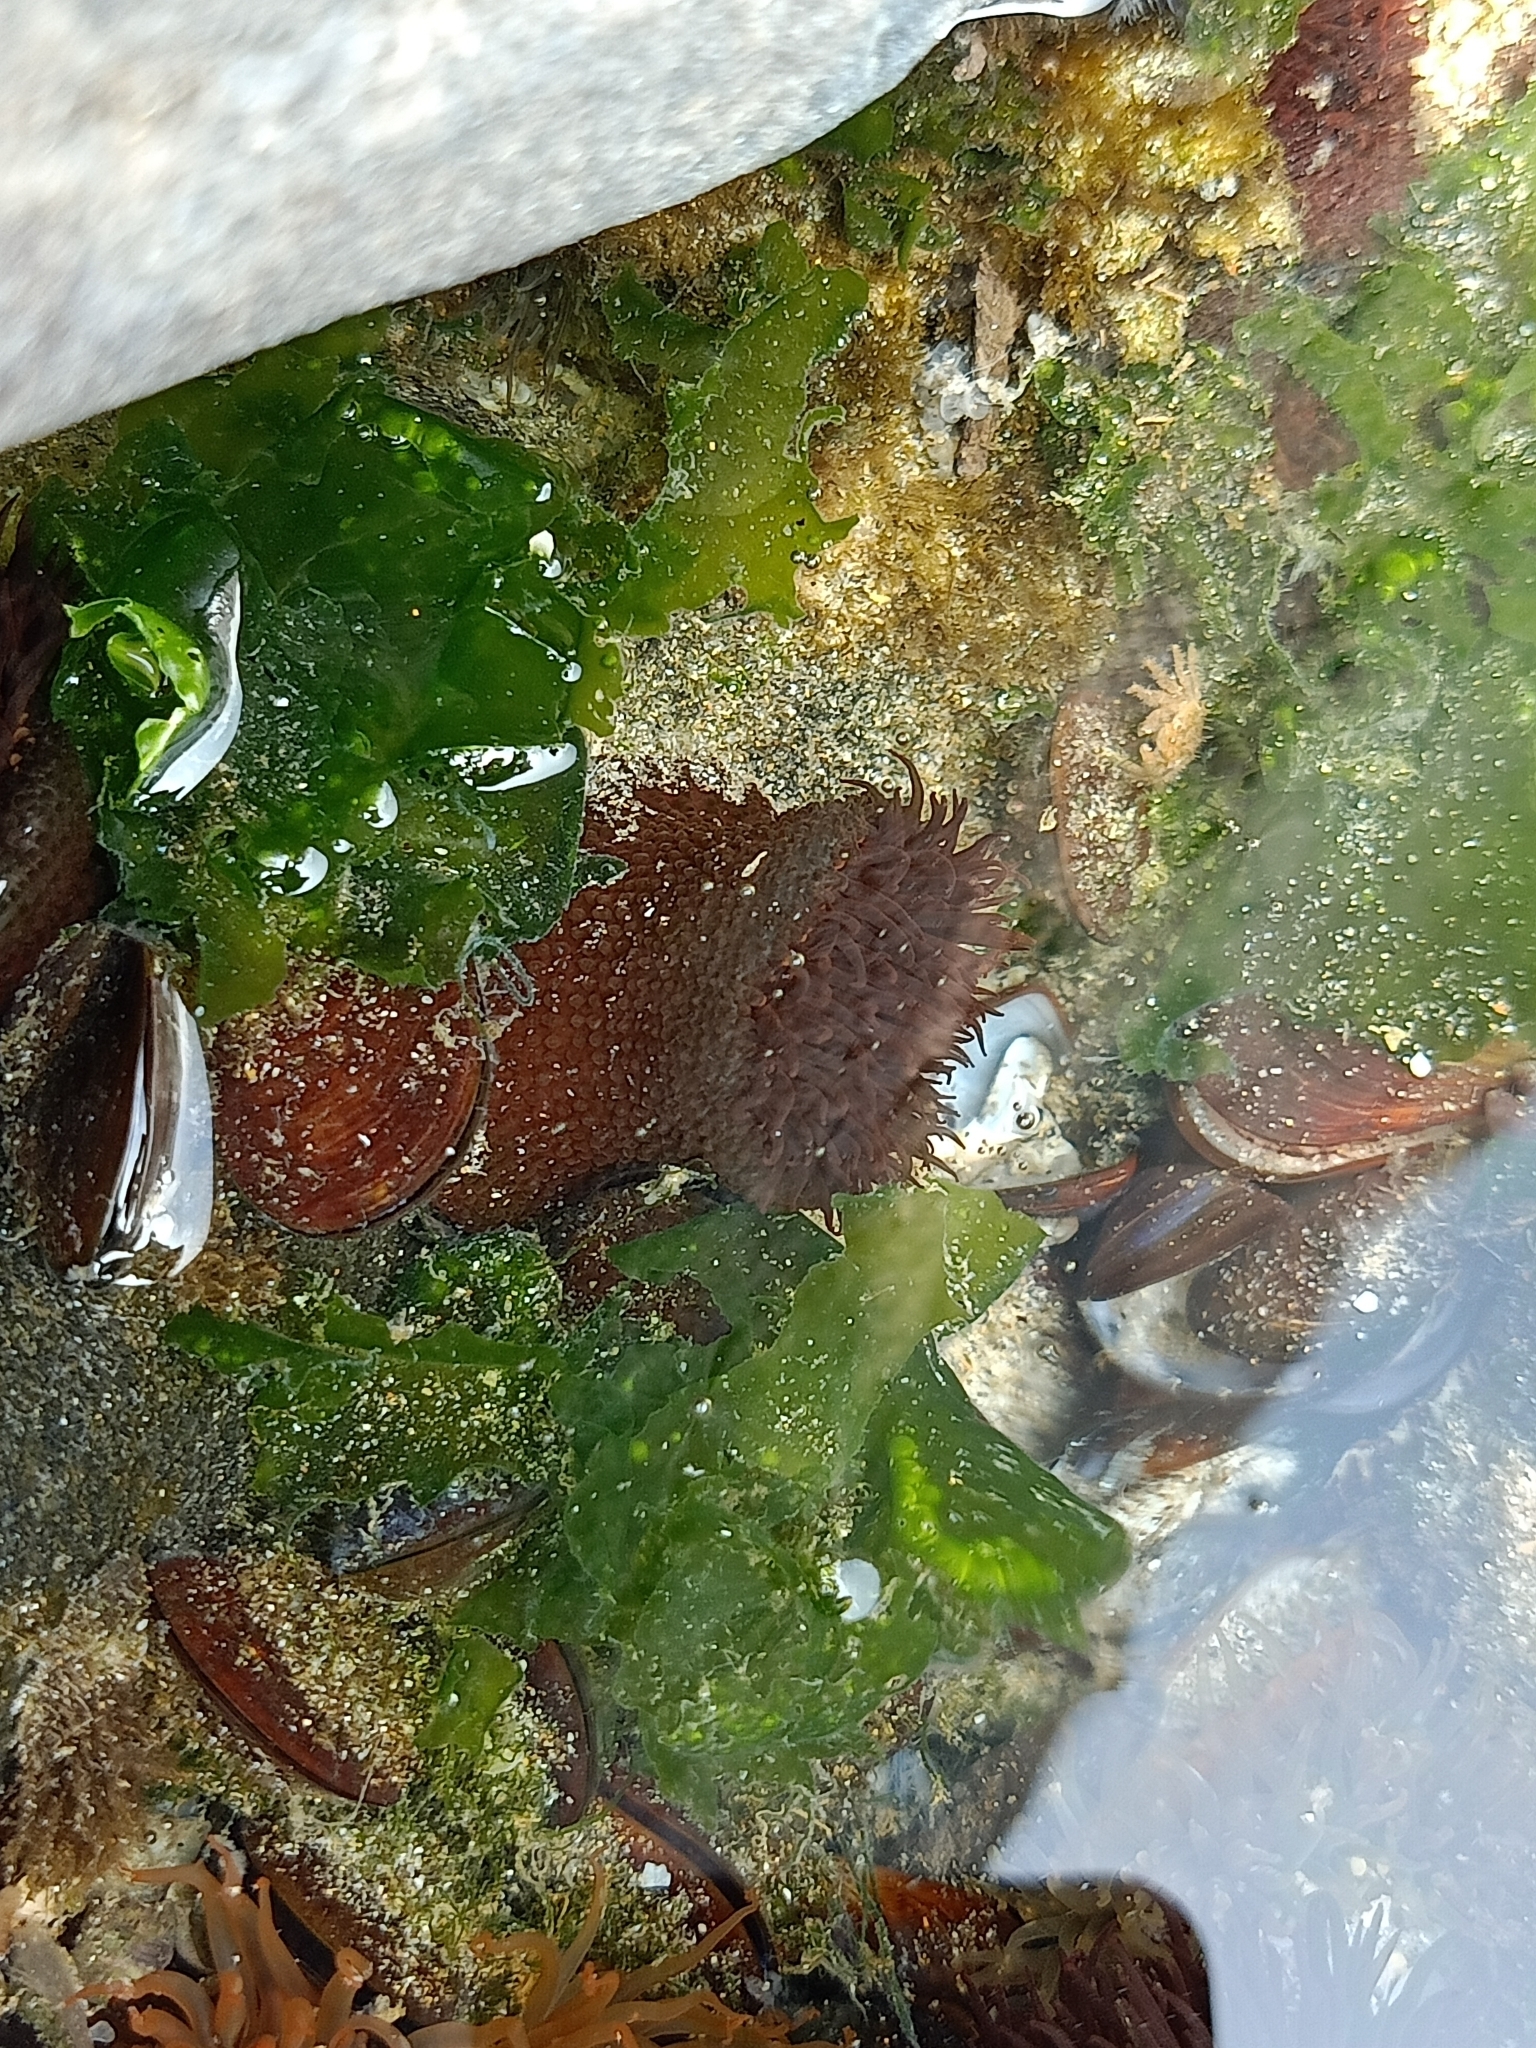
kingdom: Animalia
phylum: Cnidaria
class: Anthozoa
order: Actiniaria
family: Actiniidae
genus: Bunodosoma
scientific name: Bunodosoma goanense
